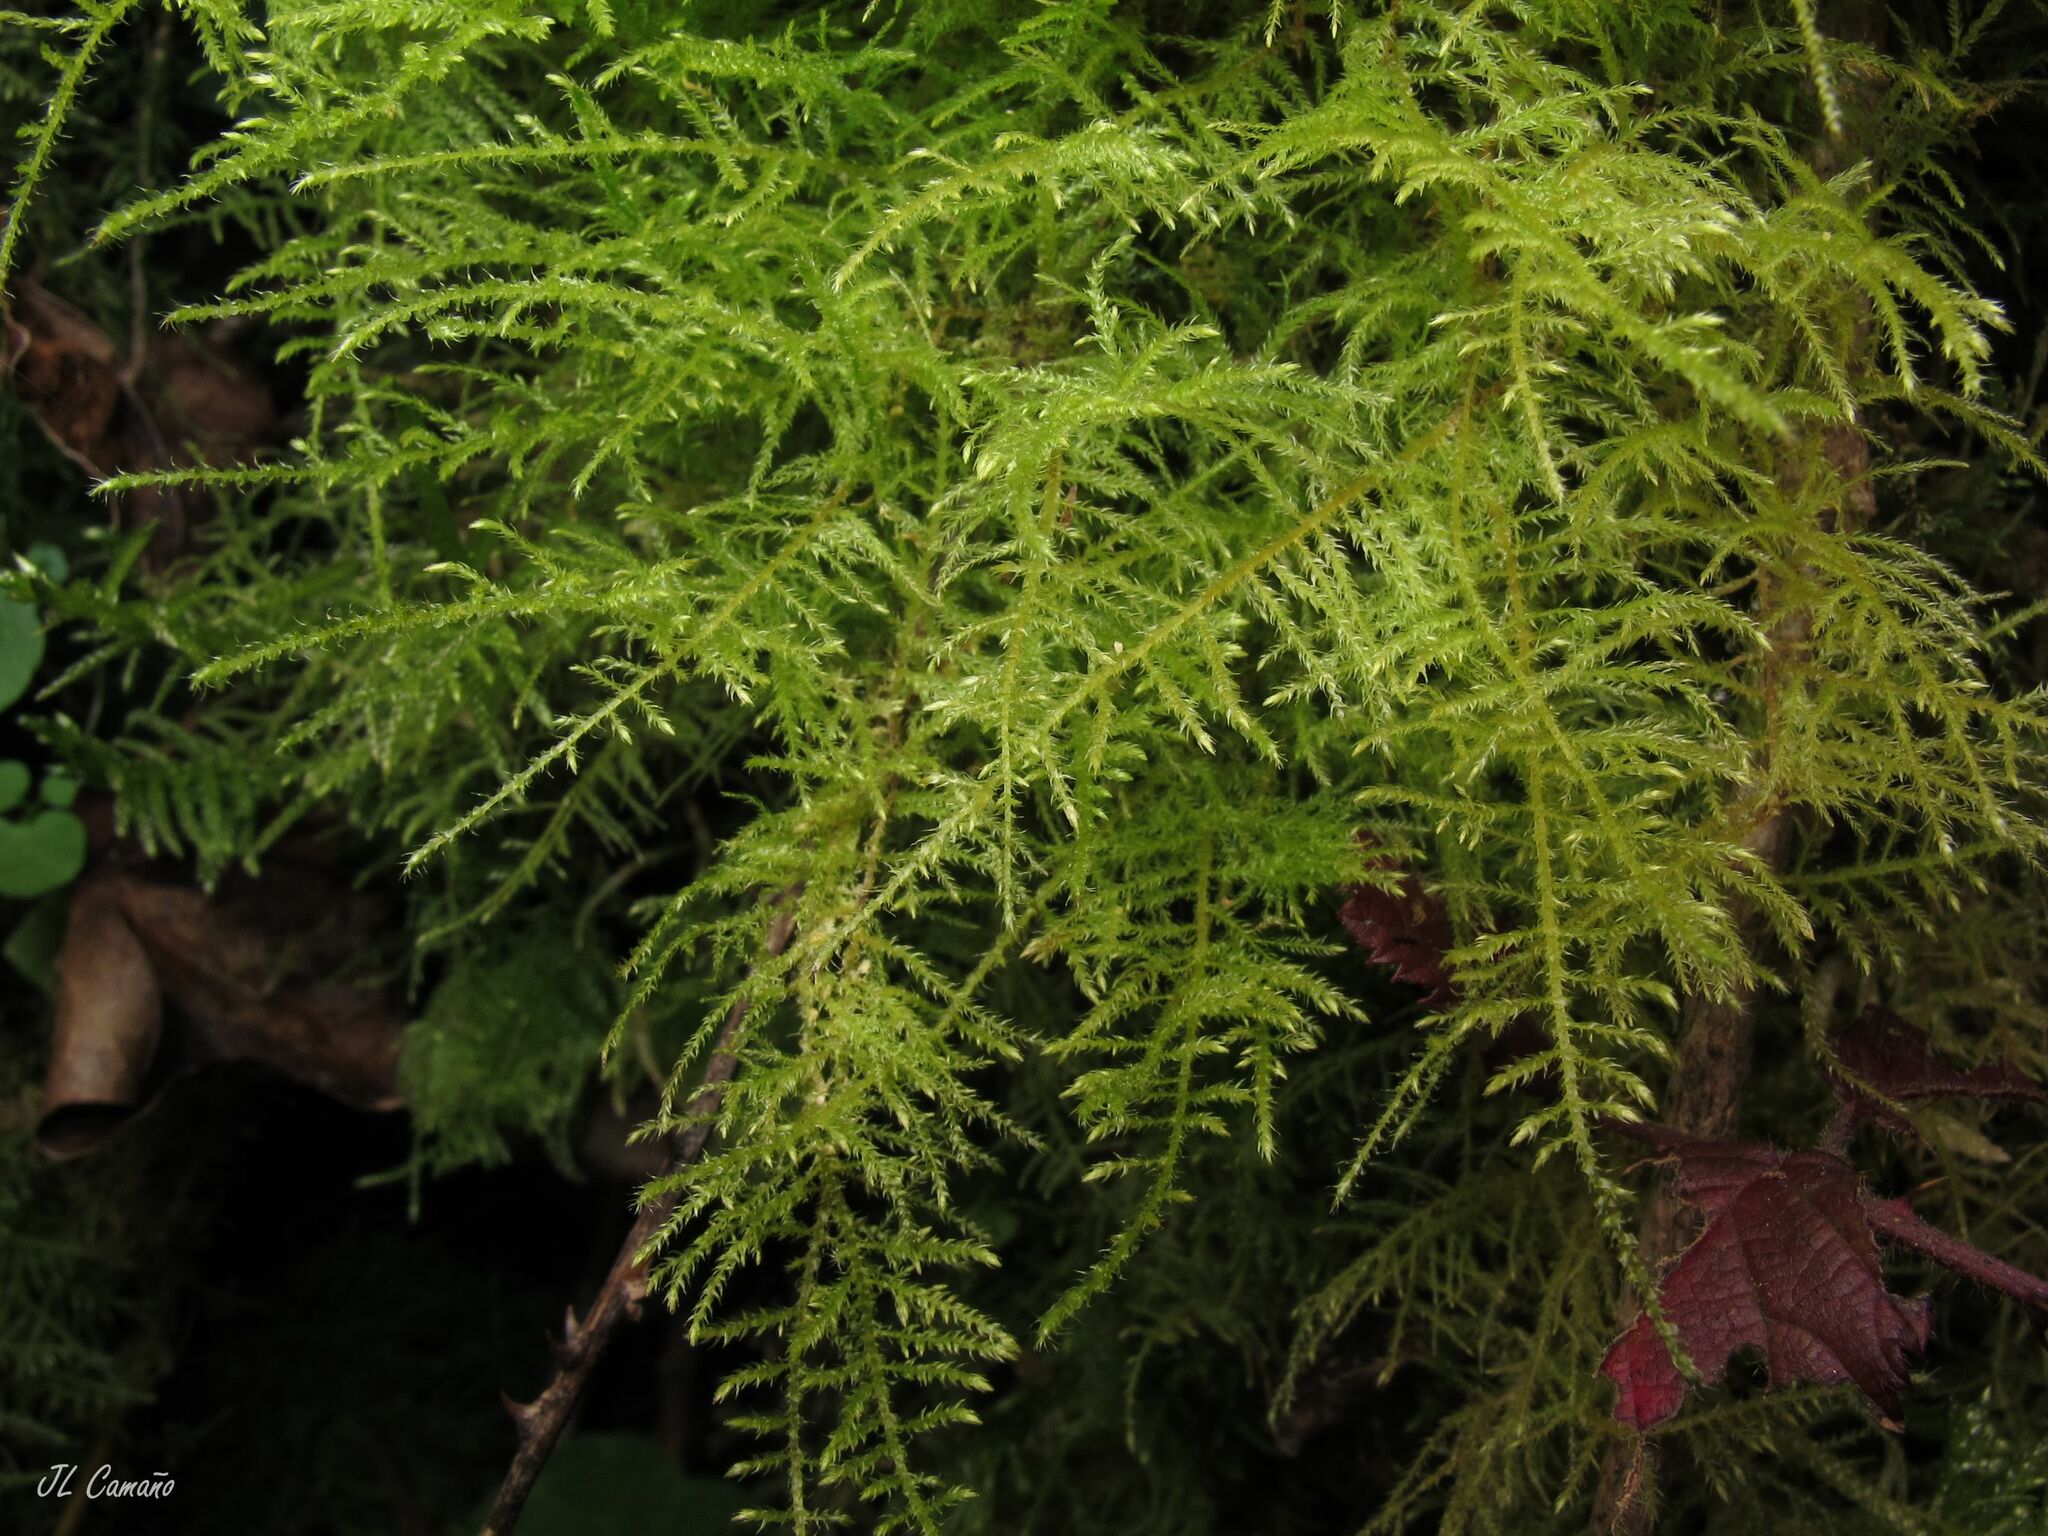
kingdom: Plantae
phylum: Bryophyta
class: Bryopsida
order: Hypnales
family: Brachytheciaceae
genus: Kindbergia
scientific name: Kindbergia praelonga
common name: Slender beaked moss
